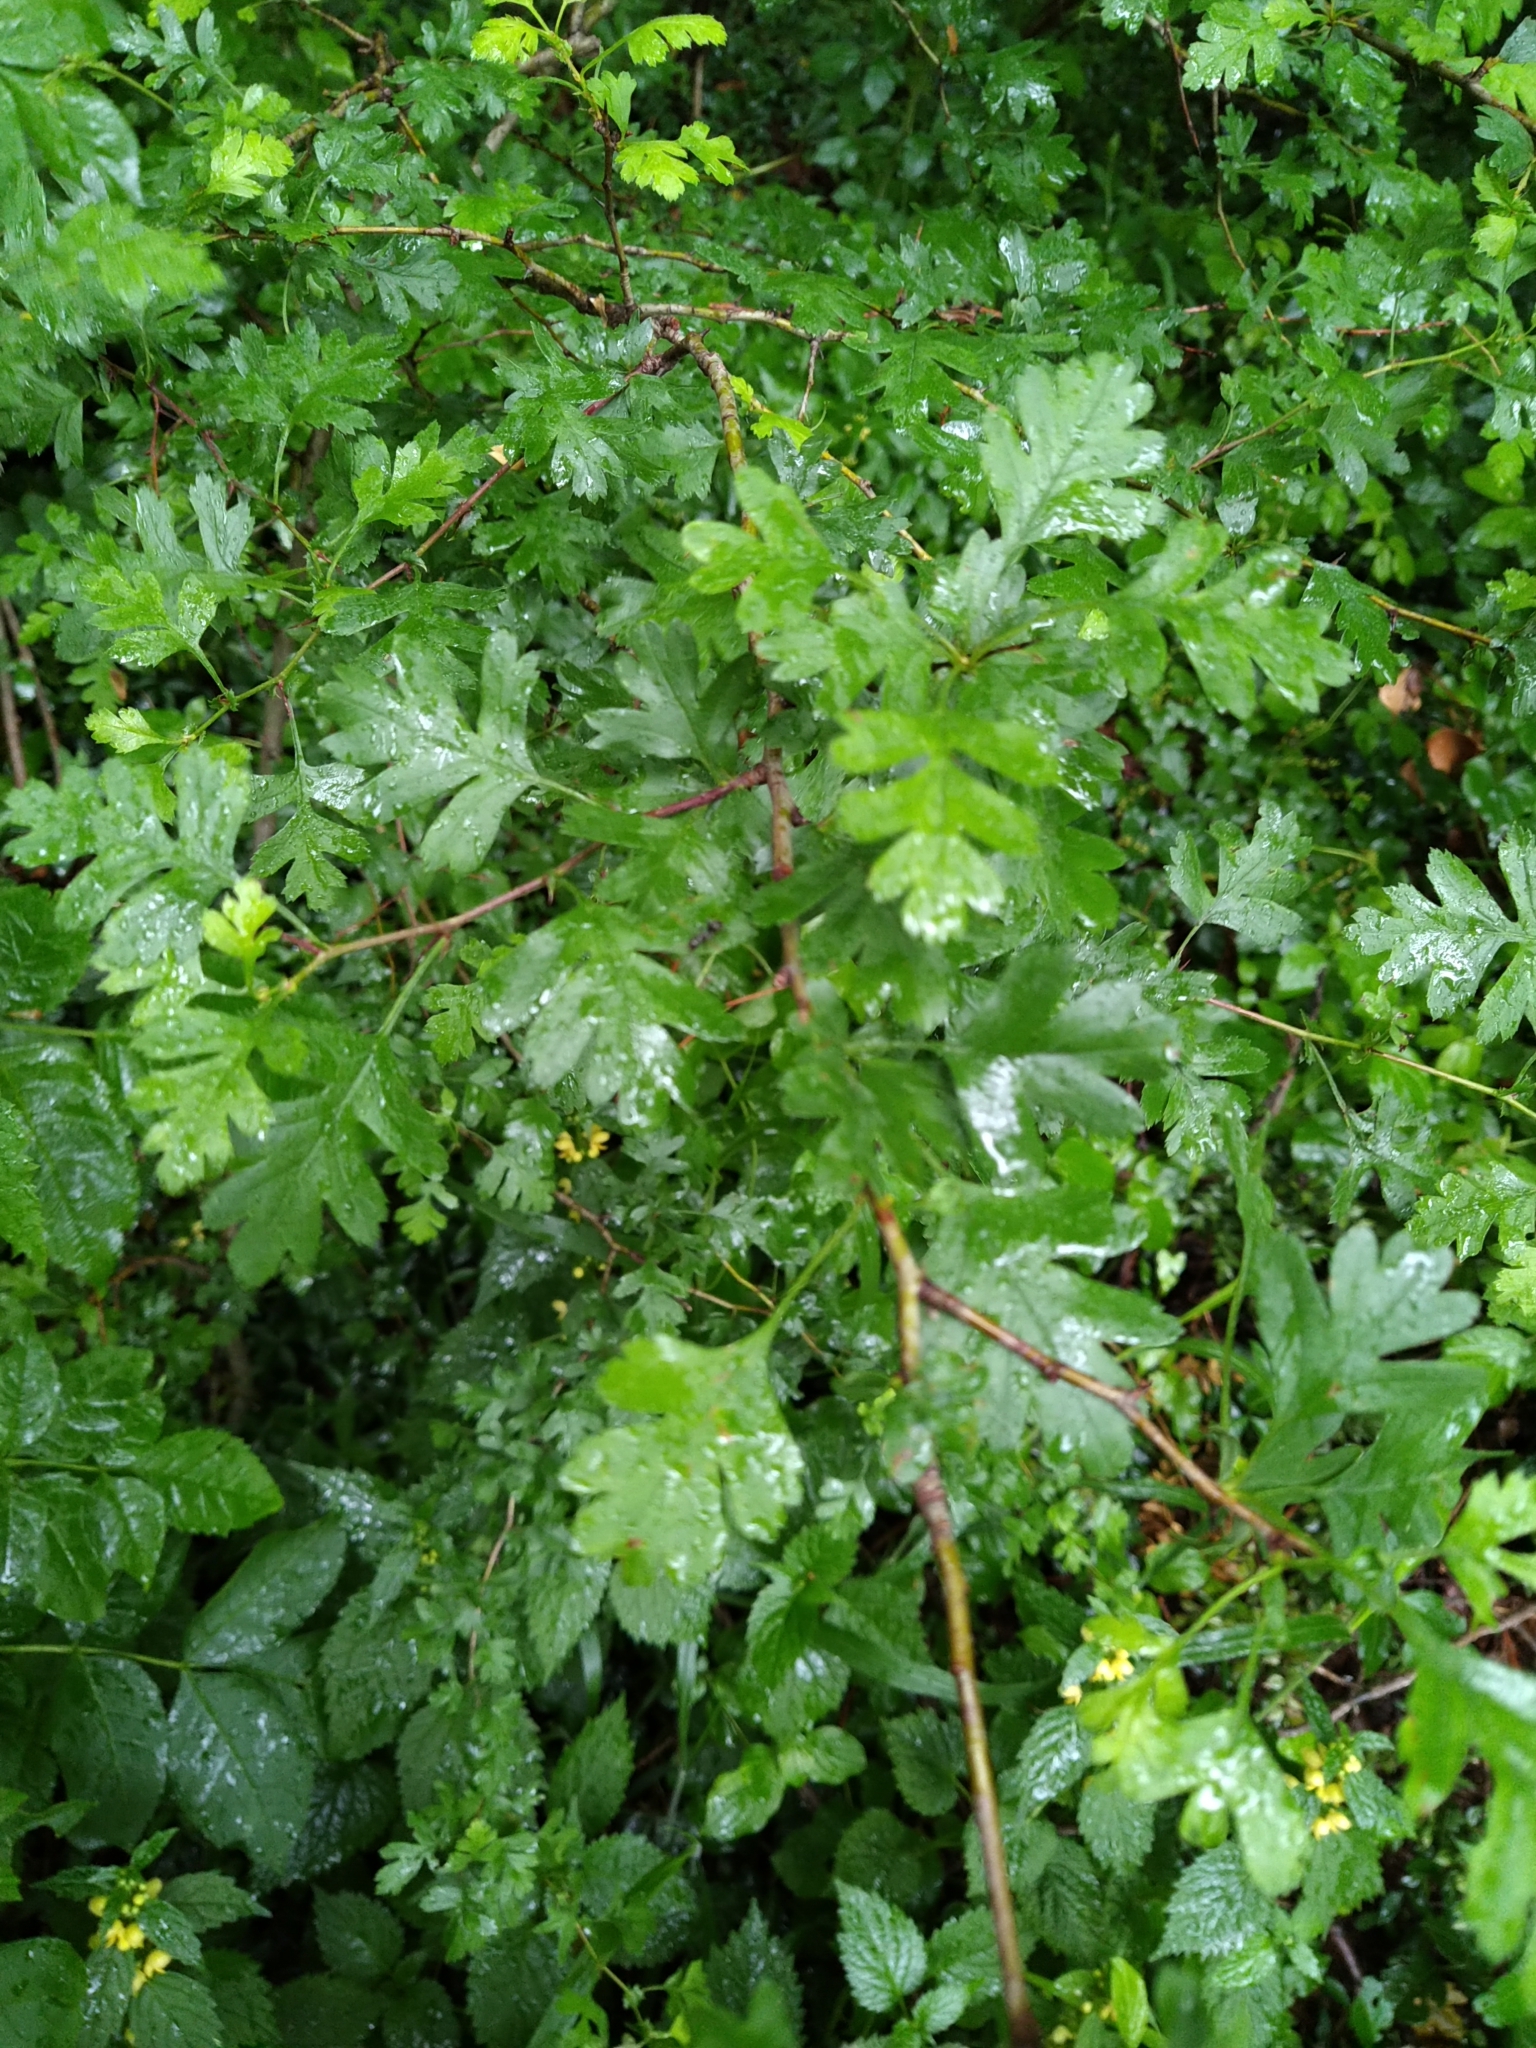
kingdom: Plantae
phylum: Tracheophyta
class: Magnoliopsida
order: Rosales
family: Rosaceae
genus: Crataegus
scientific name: Crataegus monogyna
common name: Hawthorn
